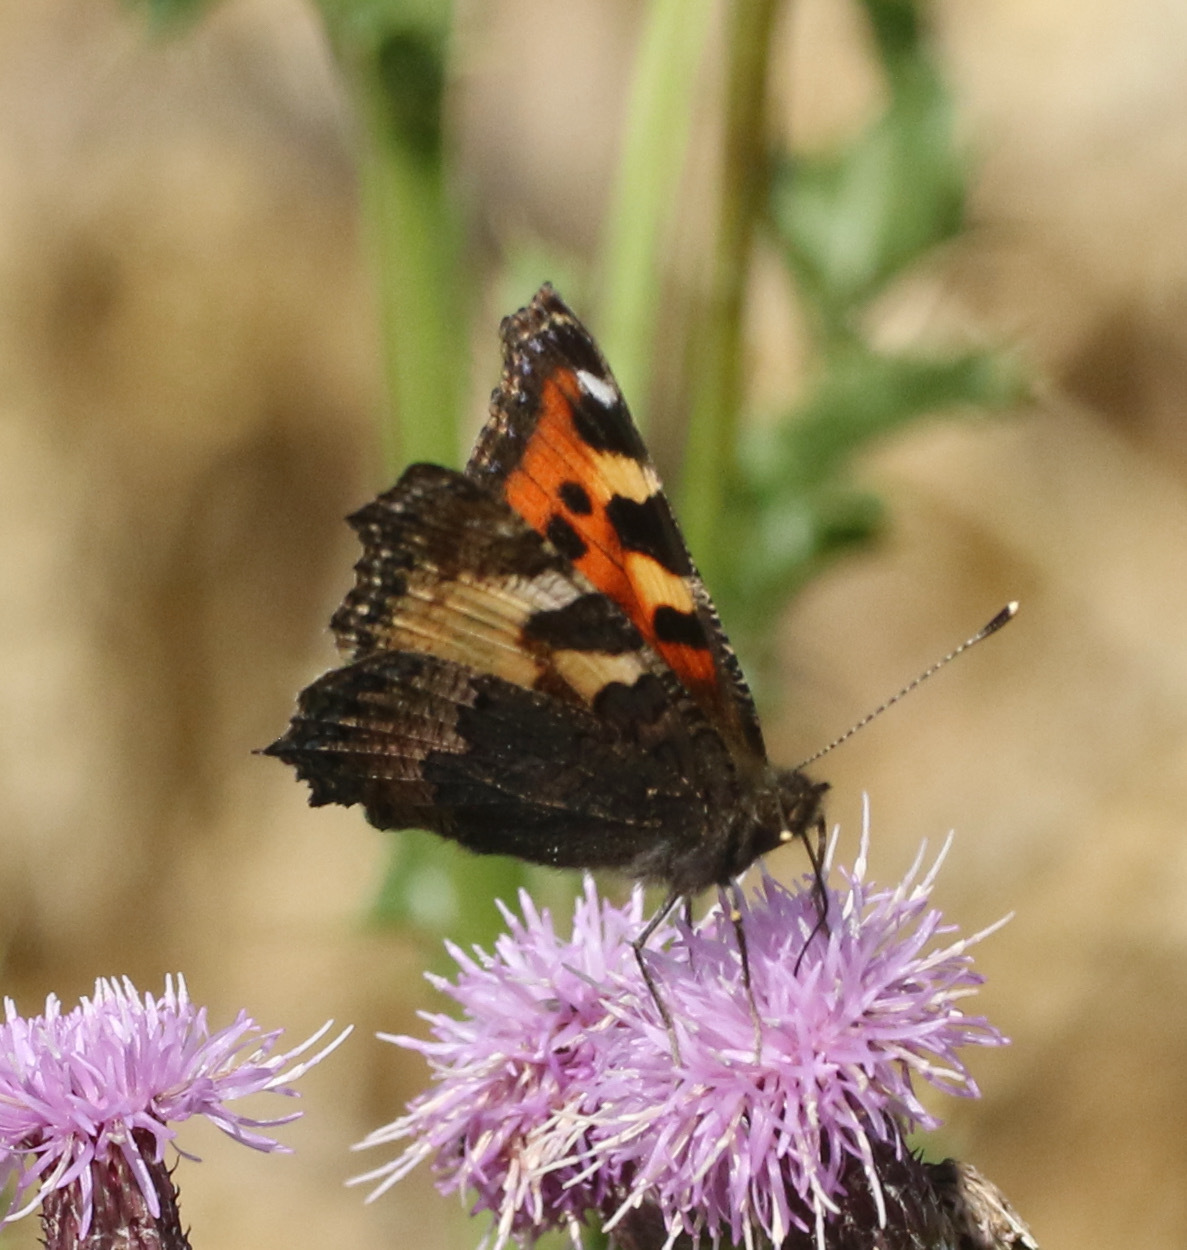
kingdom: Animalia
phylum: Arthropoda
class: Insecta
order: Lepidoptera
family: Nymphalidae
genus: Aglais
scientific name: Aglais urticae
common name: Small tortoiseshell
